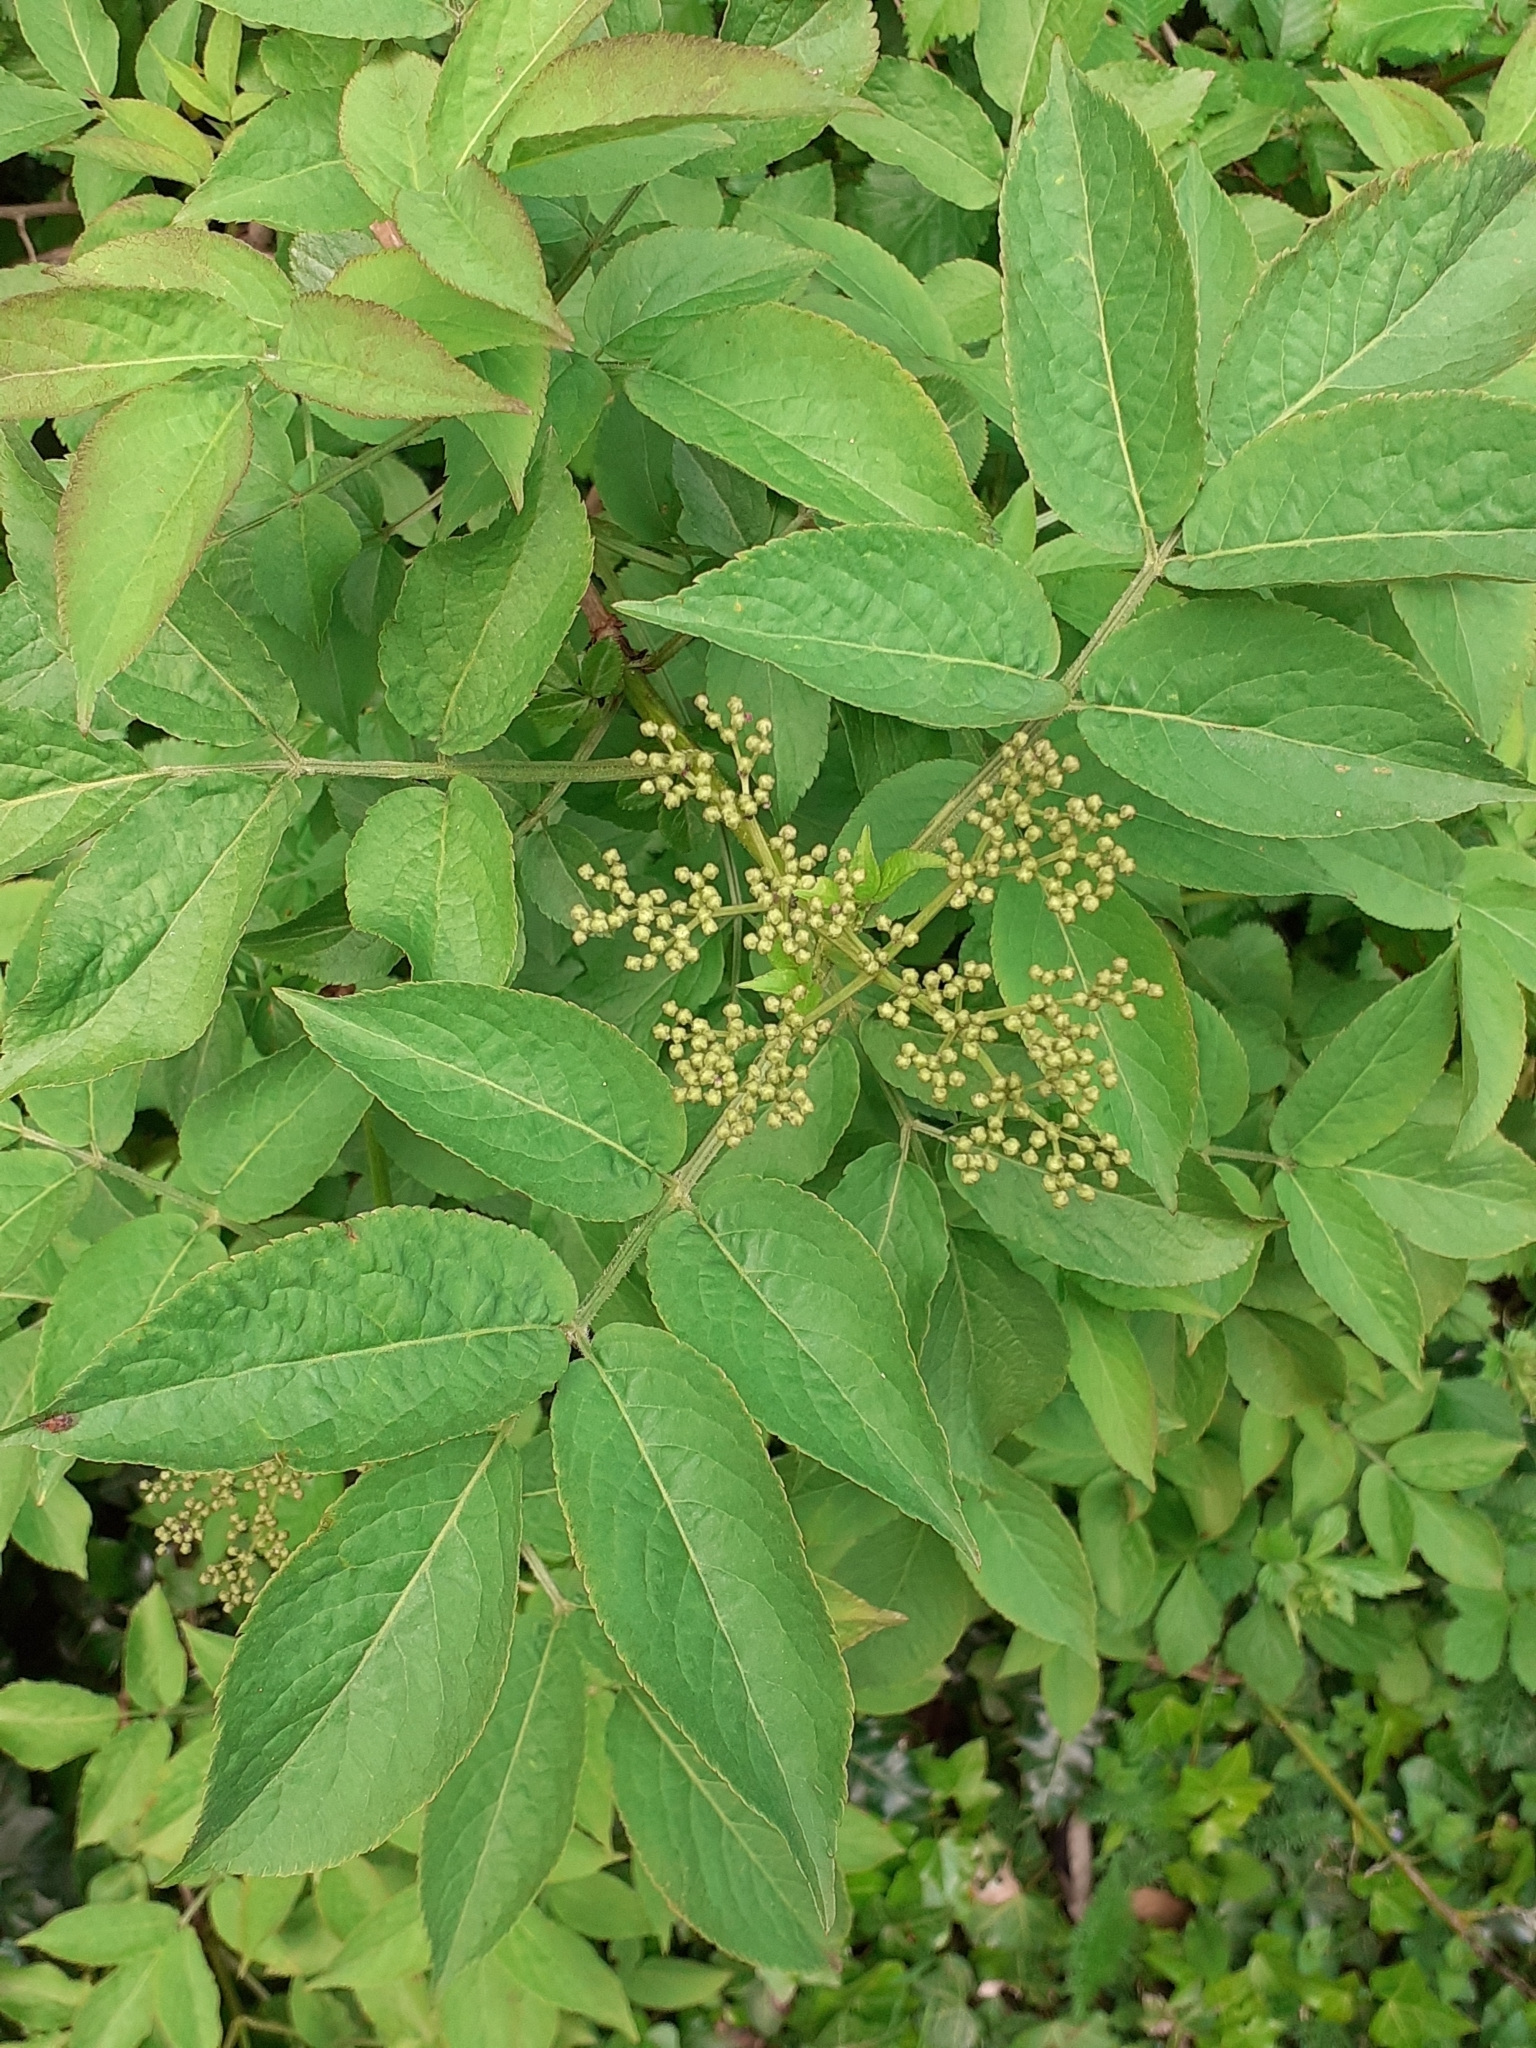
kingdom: Plantae
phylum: Tracheophyta
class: Magnoliopsida
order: Dipsacales
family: Viburnaceae
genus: Sambucus
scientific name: Sambucus nigra
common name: Elder
